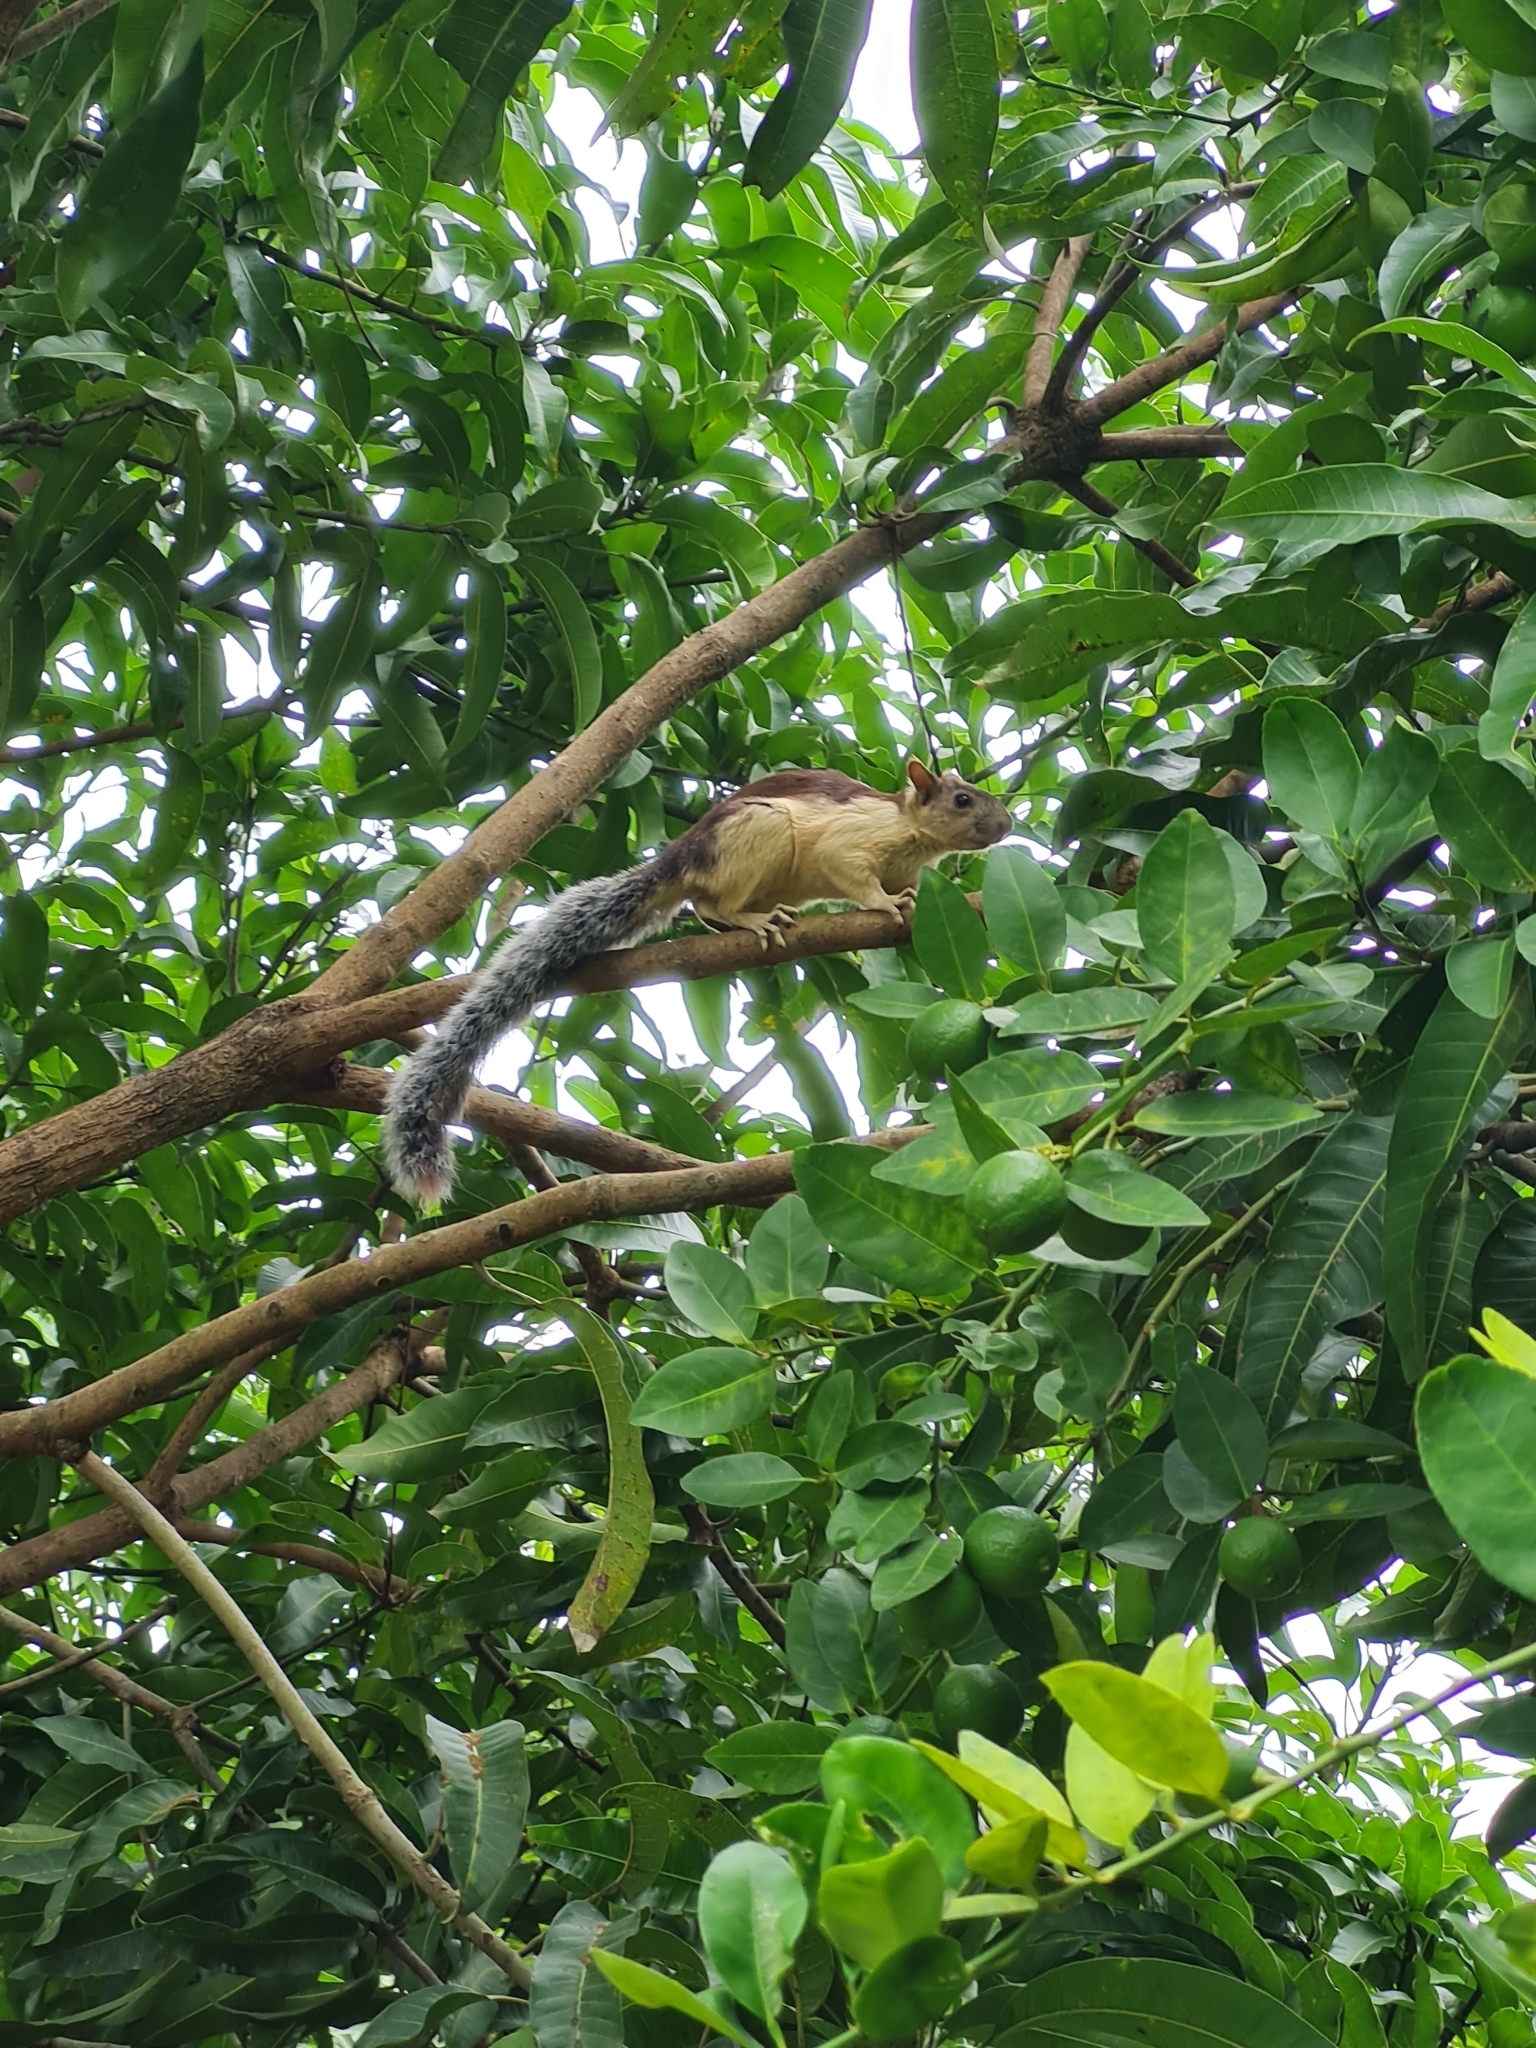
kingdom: Animalia
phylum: Chordata
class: Mammalia
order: Rodentia
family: Sciuridae
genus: Sciurus
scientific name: Sciurus variegatoides
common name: Variegated squirrel
